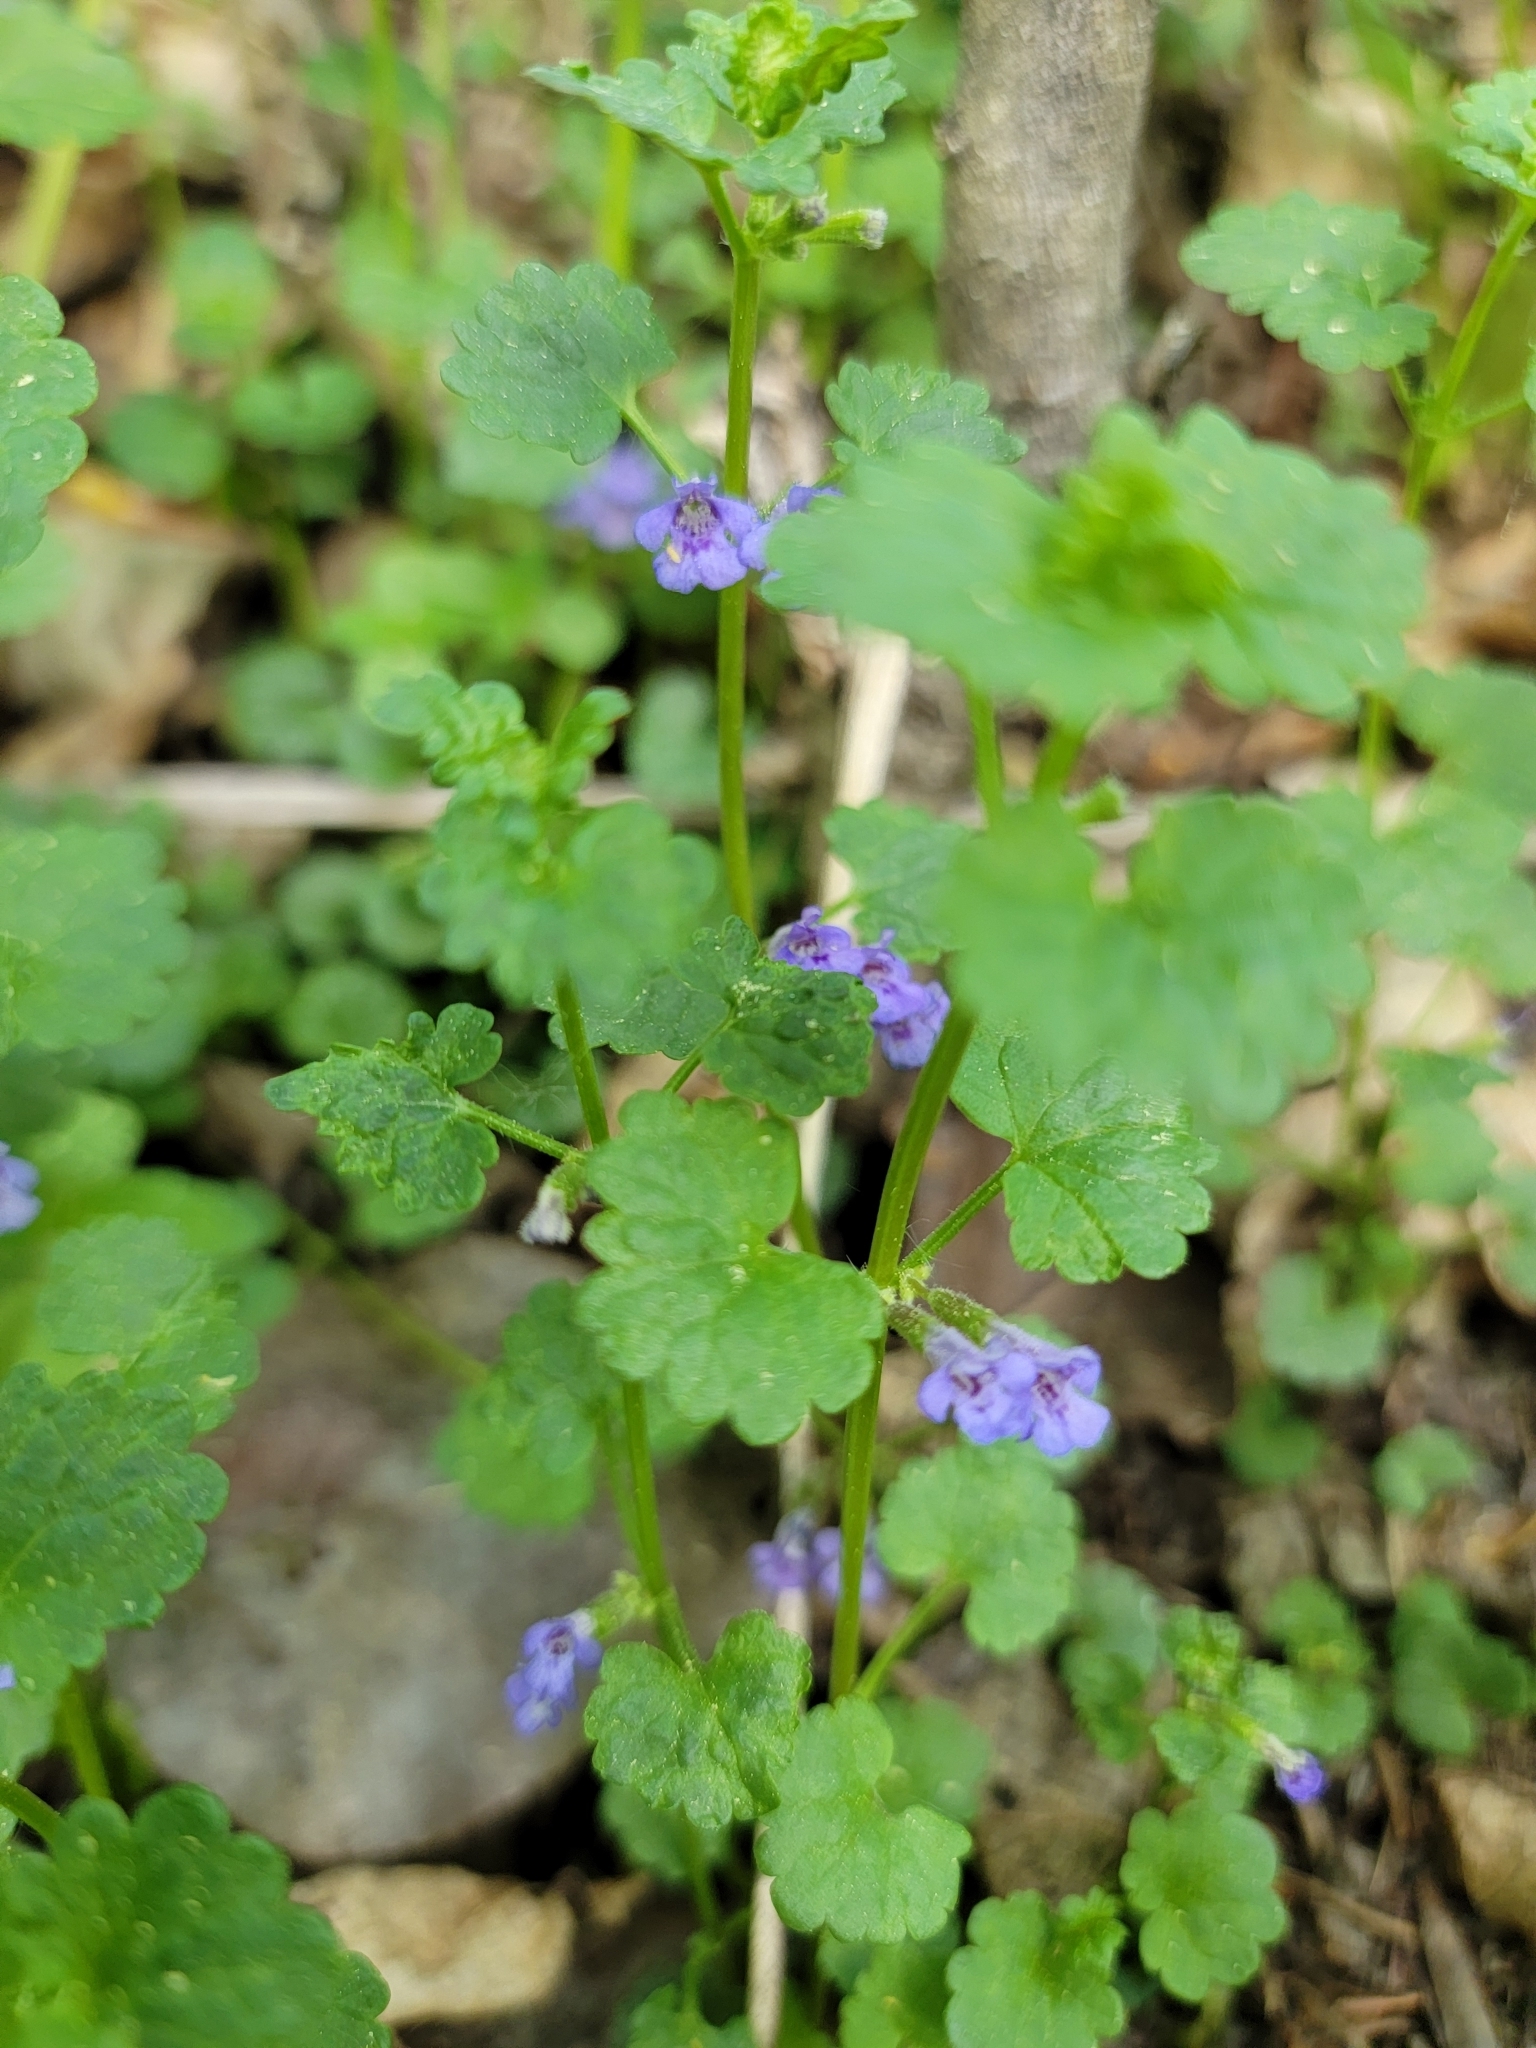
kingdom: Plantae
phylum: Tracheophyta
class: Magnoliopsida
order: Lamiales
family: Lamiaceae
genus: Glechoma
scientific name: Glechoma hederacea
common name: Ground ivy
